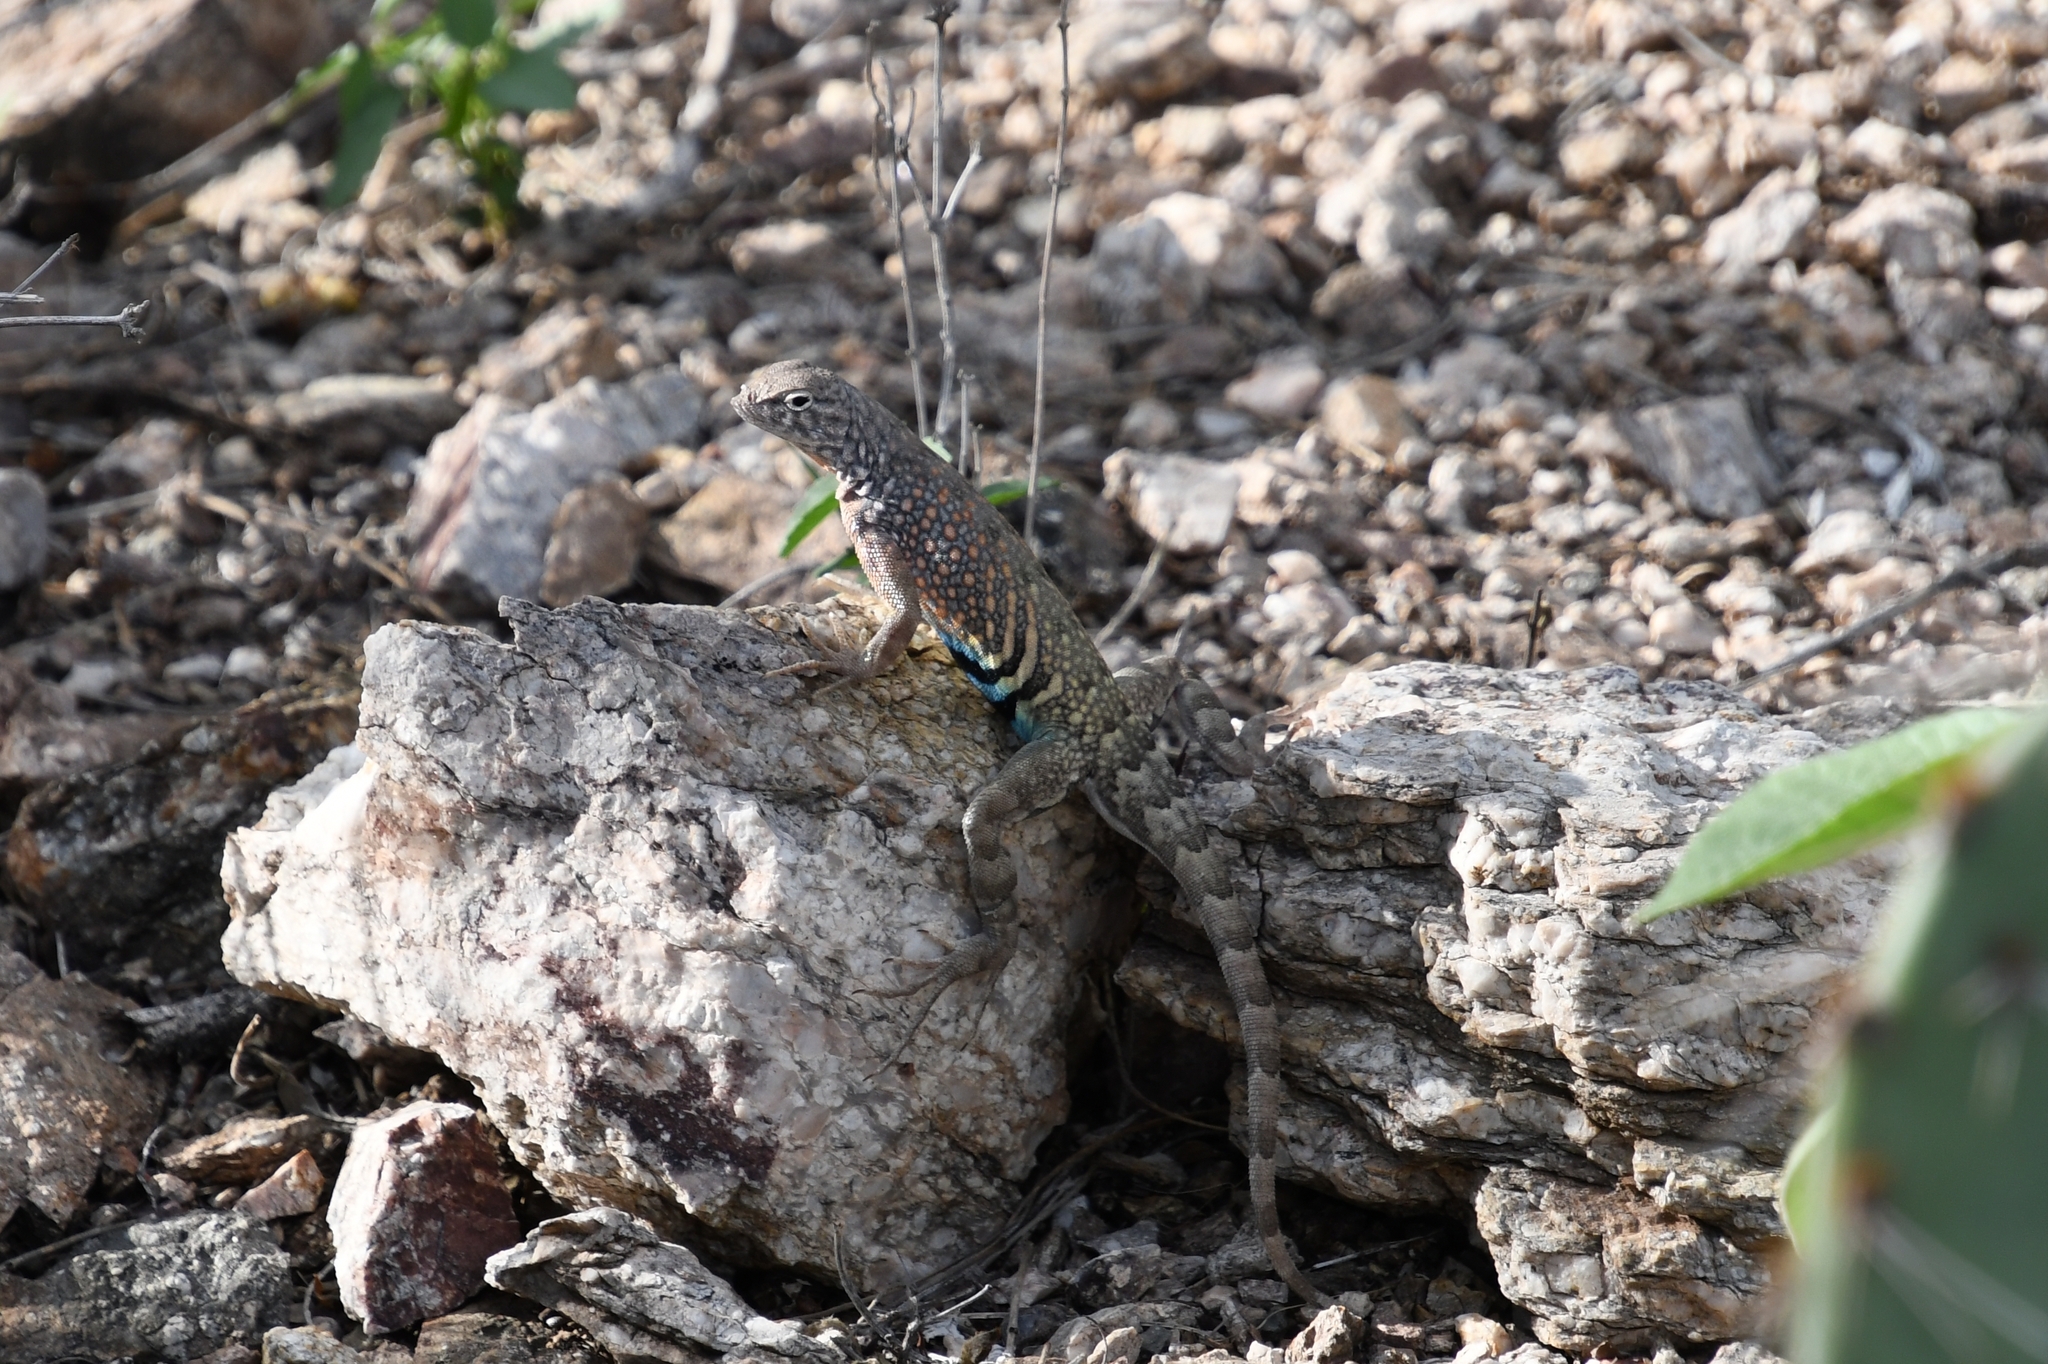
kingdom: Animalia
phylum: Chordata
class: Squamata
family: Phrynosomatidae
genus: Cophosaurus
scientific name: Cophosaurus texanus
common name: Greater earless lizard
